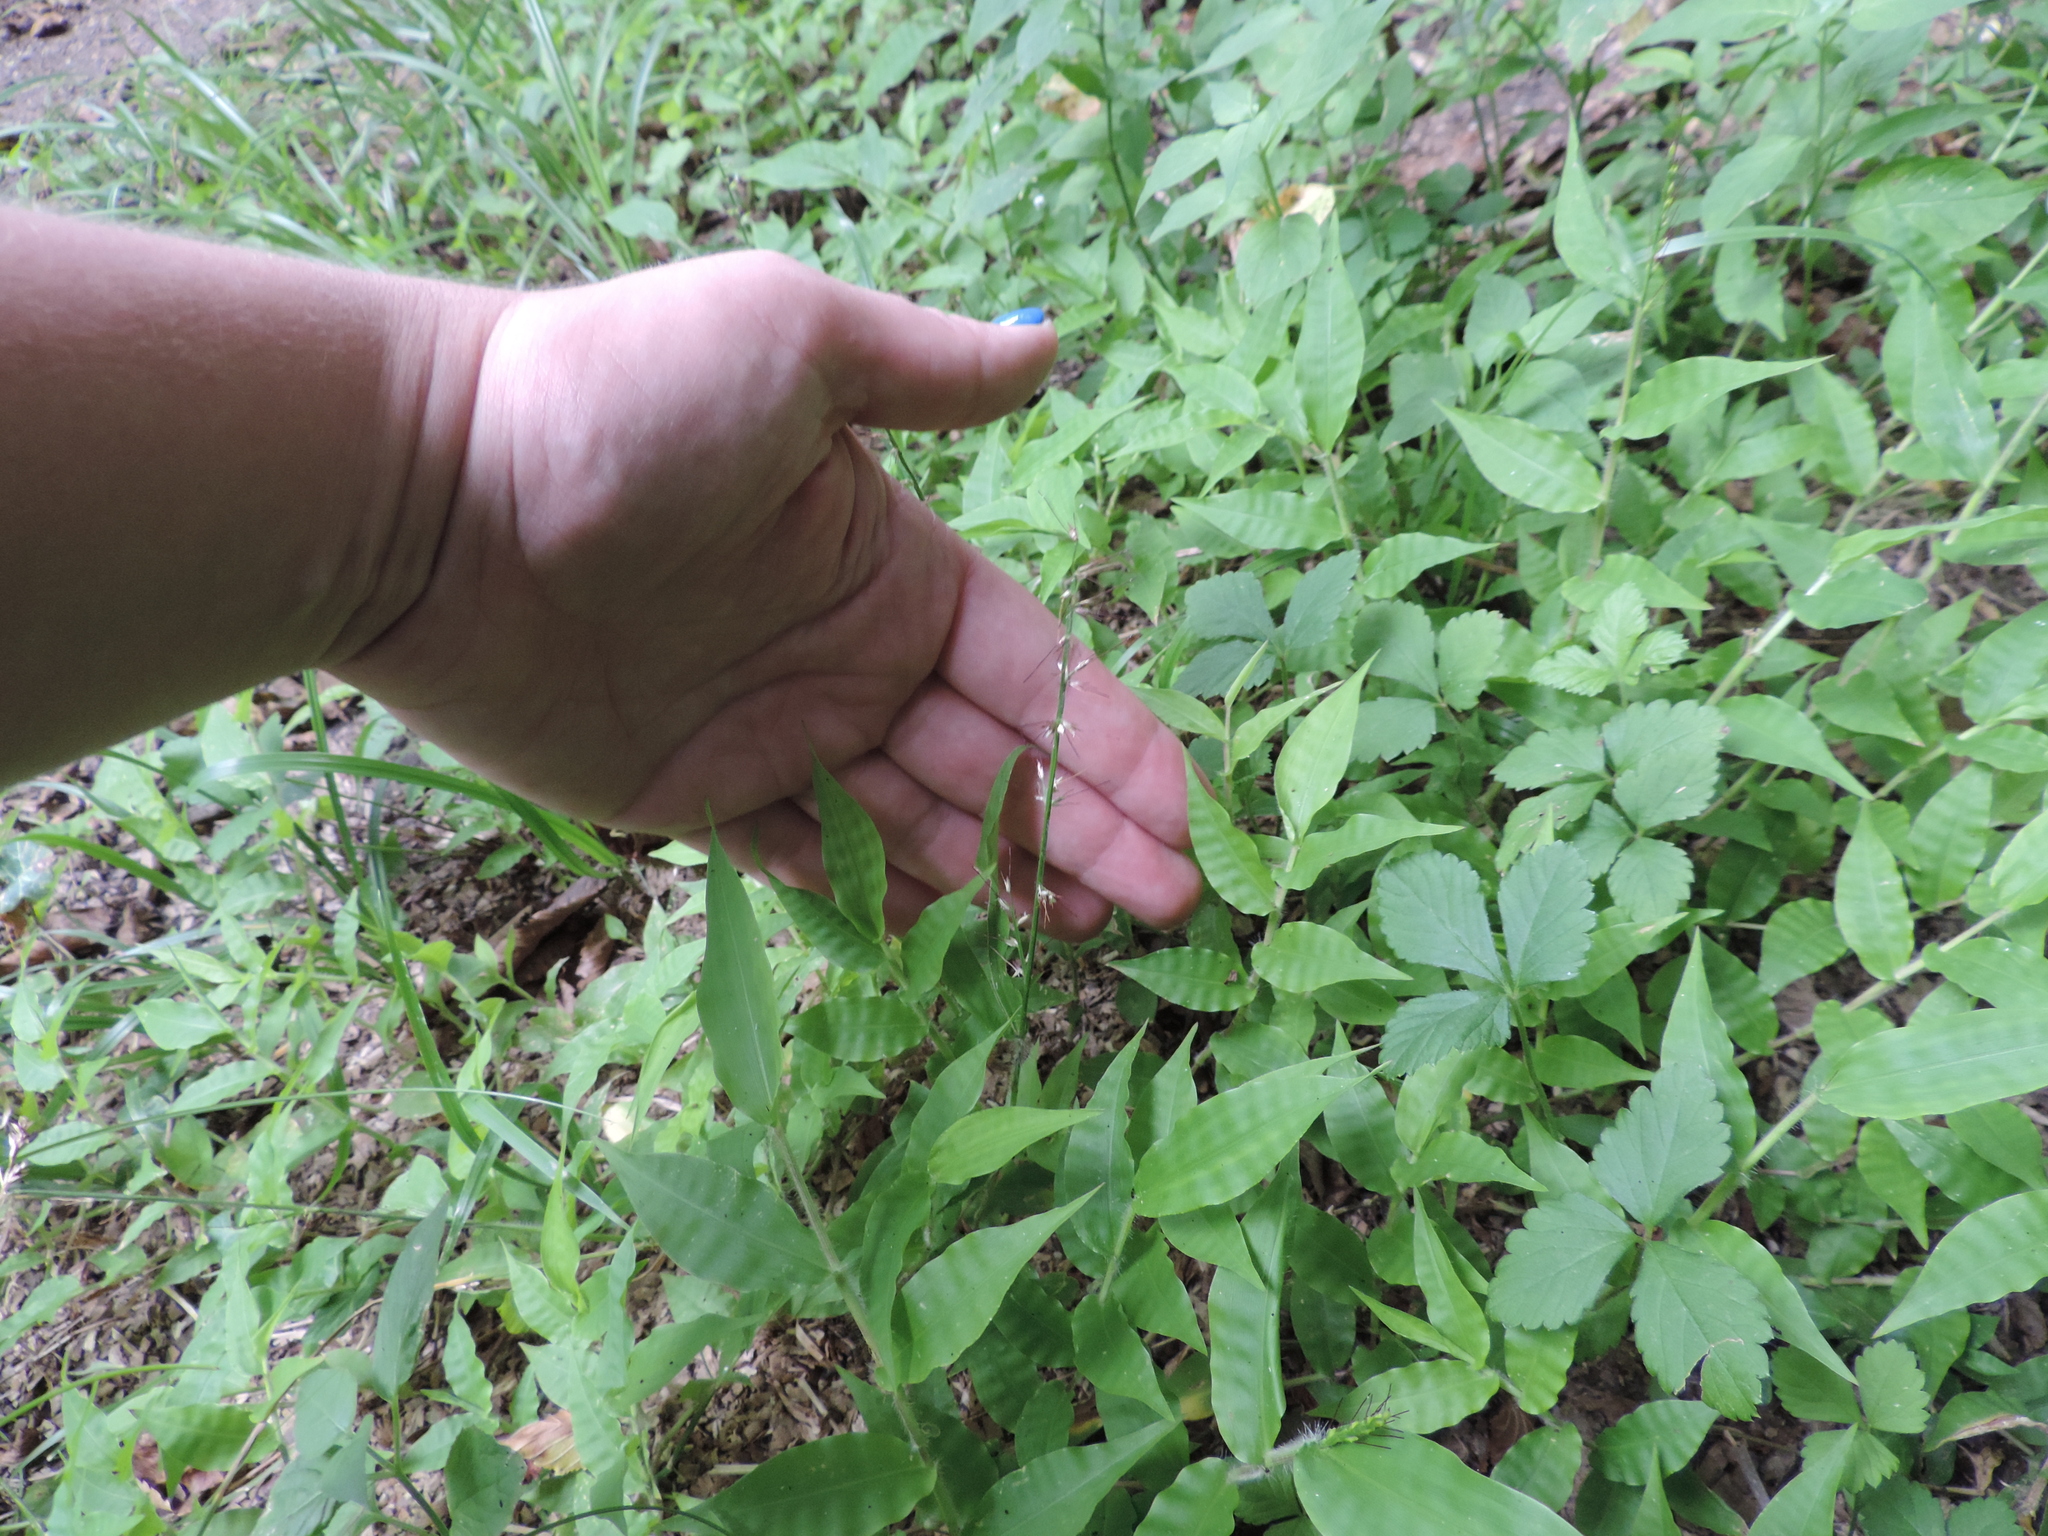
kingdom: Plantae
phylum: Tracheophyta
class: Liliopsida
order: Poales
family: Poaceae
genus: Oplismenus
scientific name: Oplismenus undulatifolius
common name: Wavyleaf basketgrass
